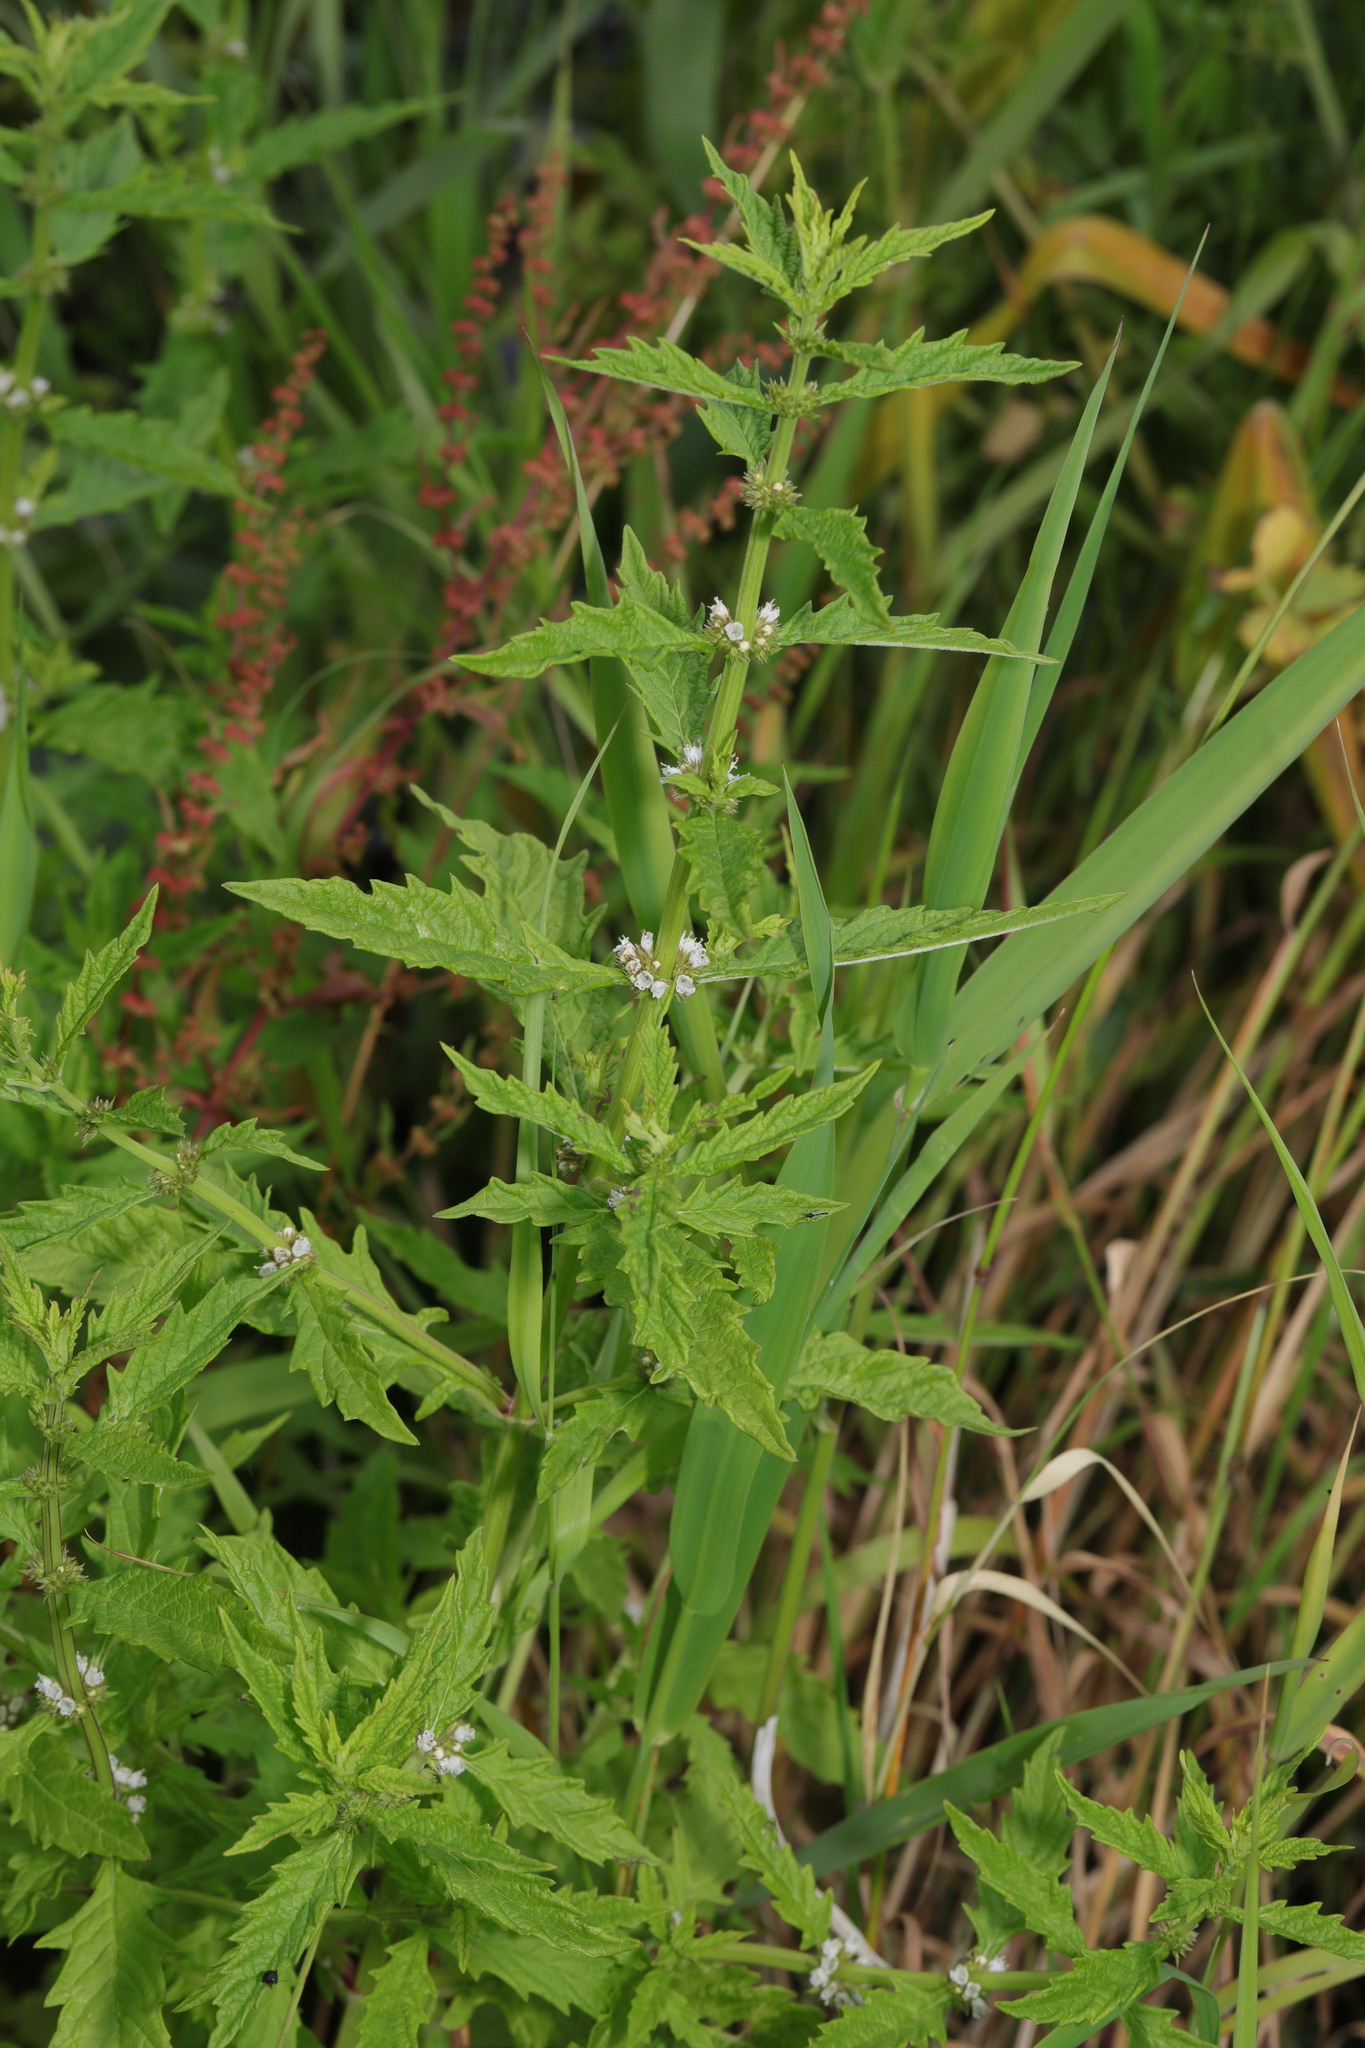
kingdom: Plantae
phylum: Tracheophyta
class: Magnoliopsida
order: Lamiales
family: Lamiaceae
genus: Lycopus
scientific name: Lycopus europaeus
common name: European bugleweed
